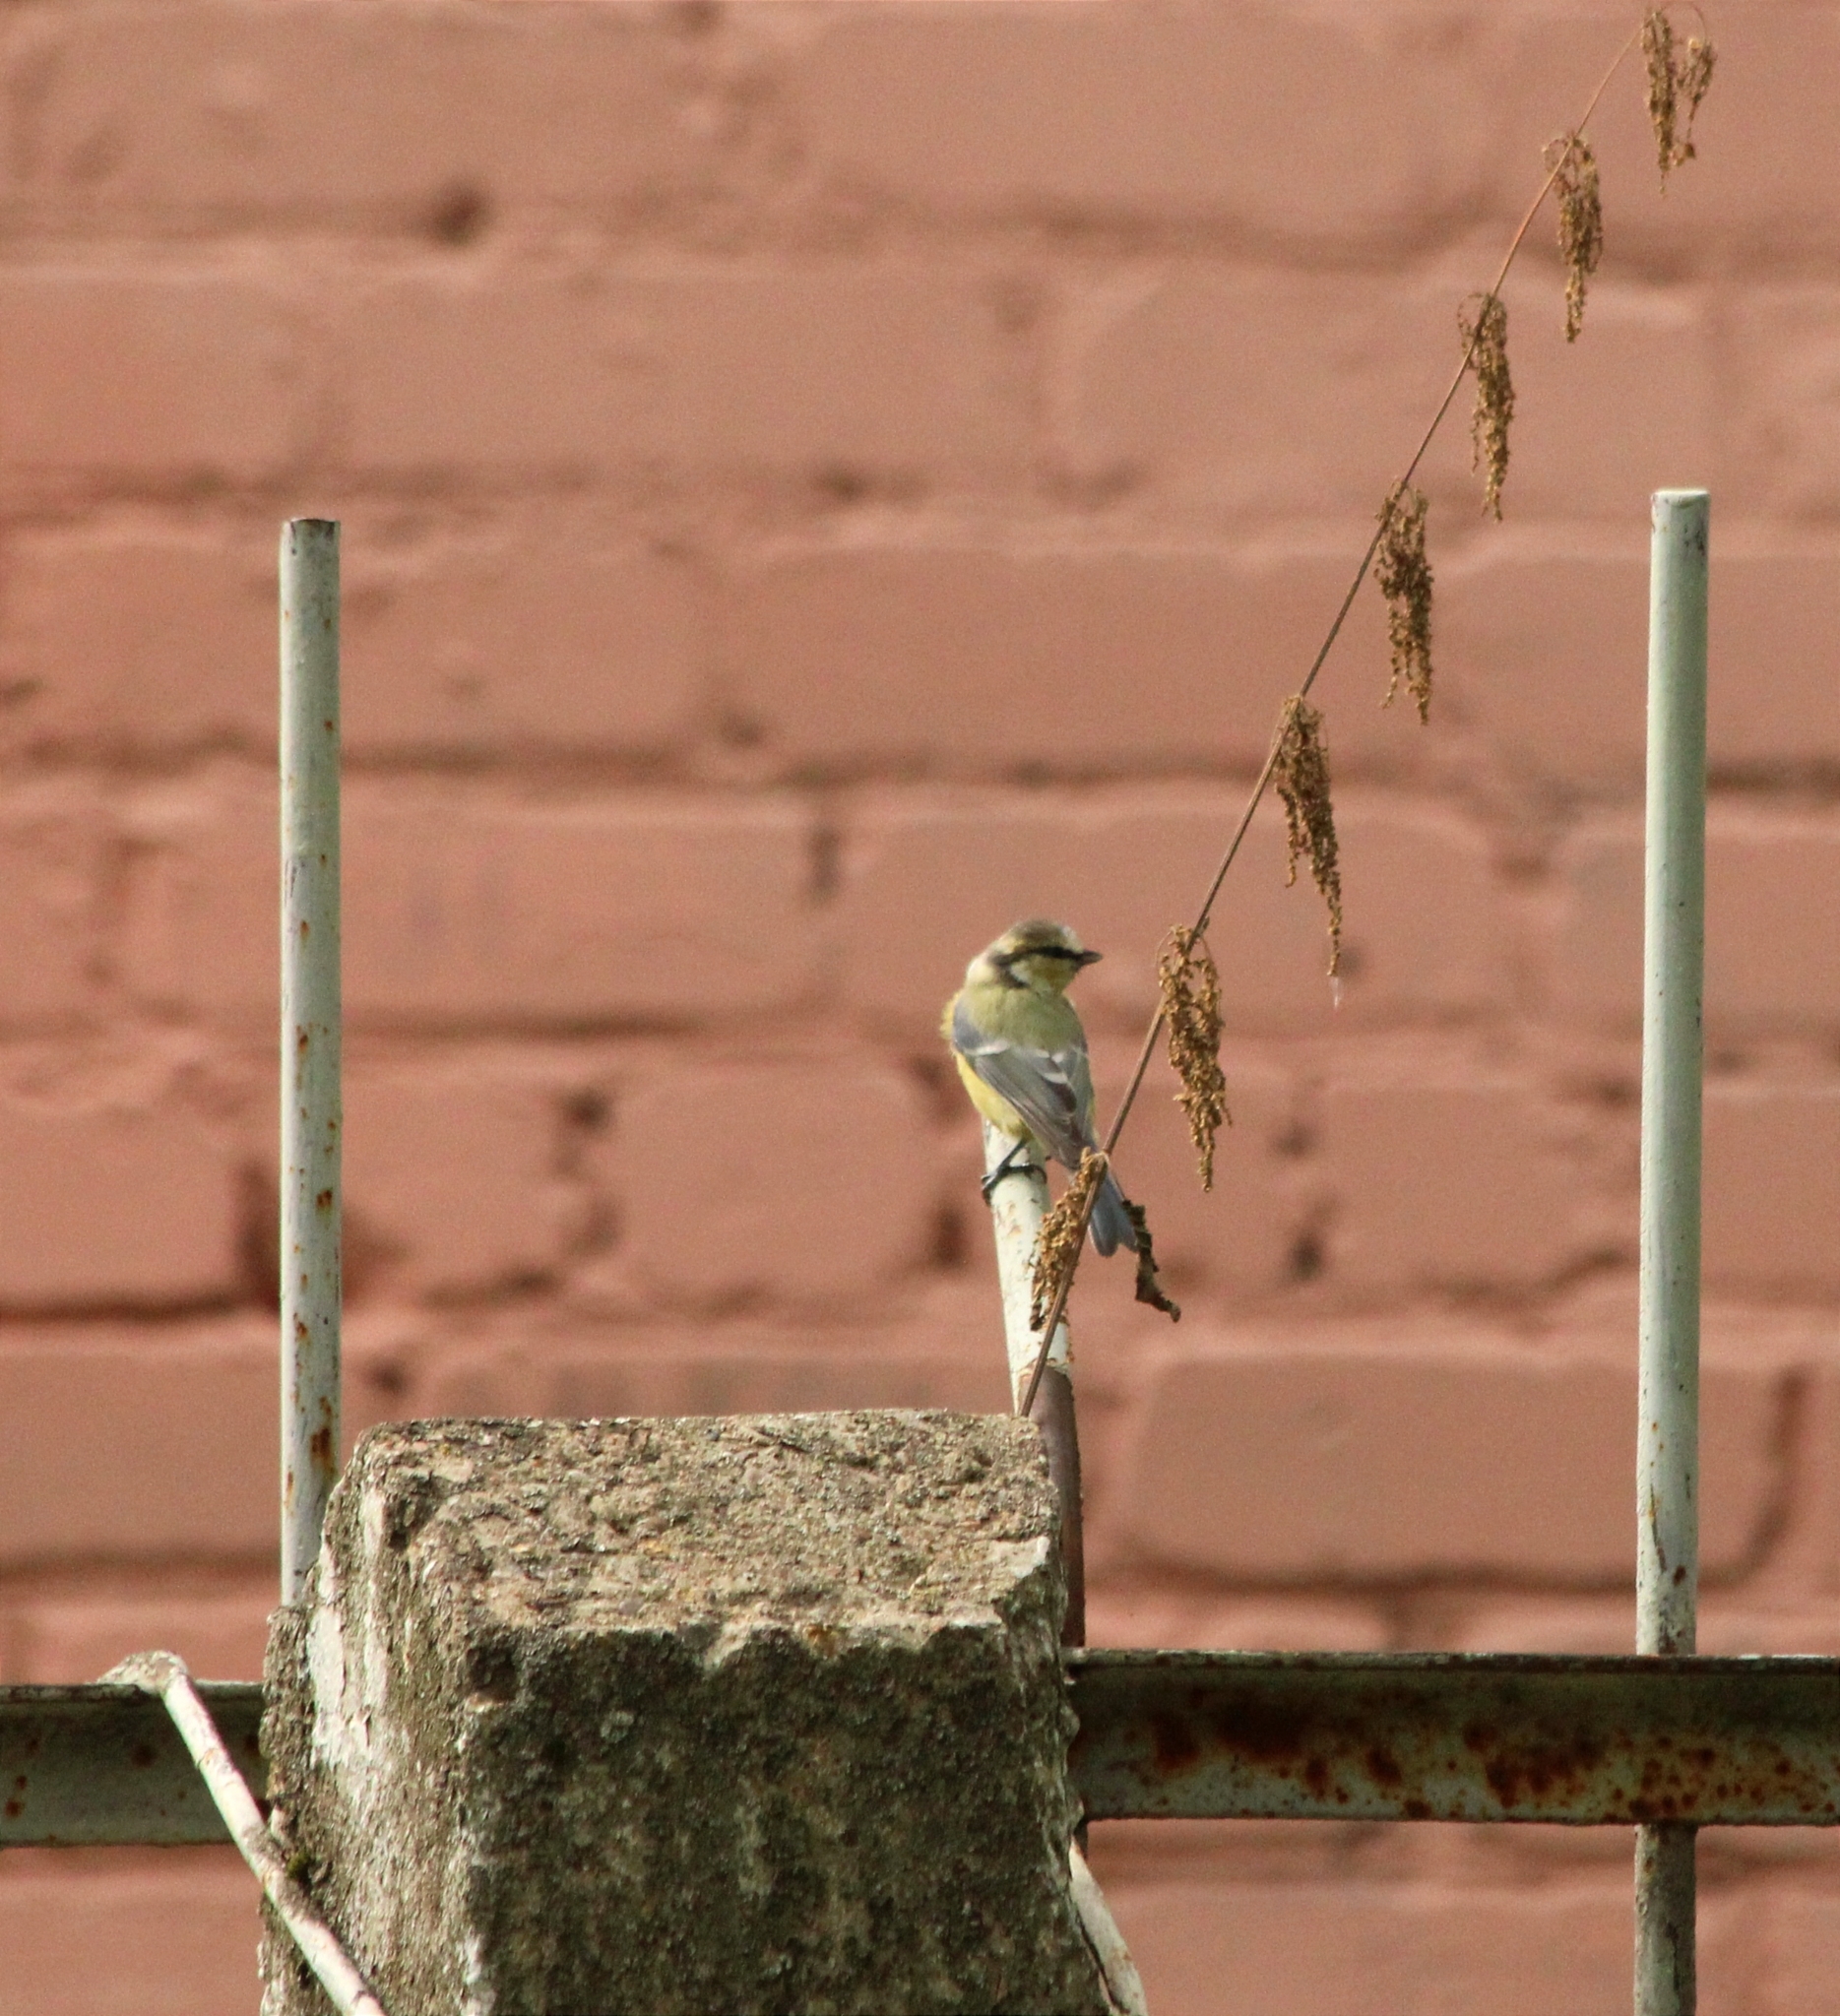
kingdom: Animalia
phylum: Chordata
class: Aves
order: Passeriformes
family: Paridae
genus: Cyanistes
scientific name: Cyanistes caeruleus
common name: Eurasian blue tit
